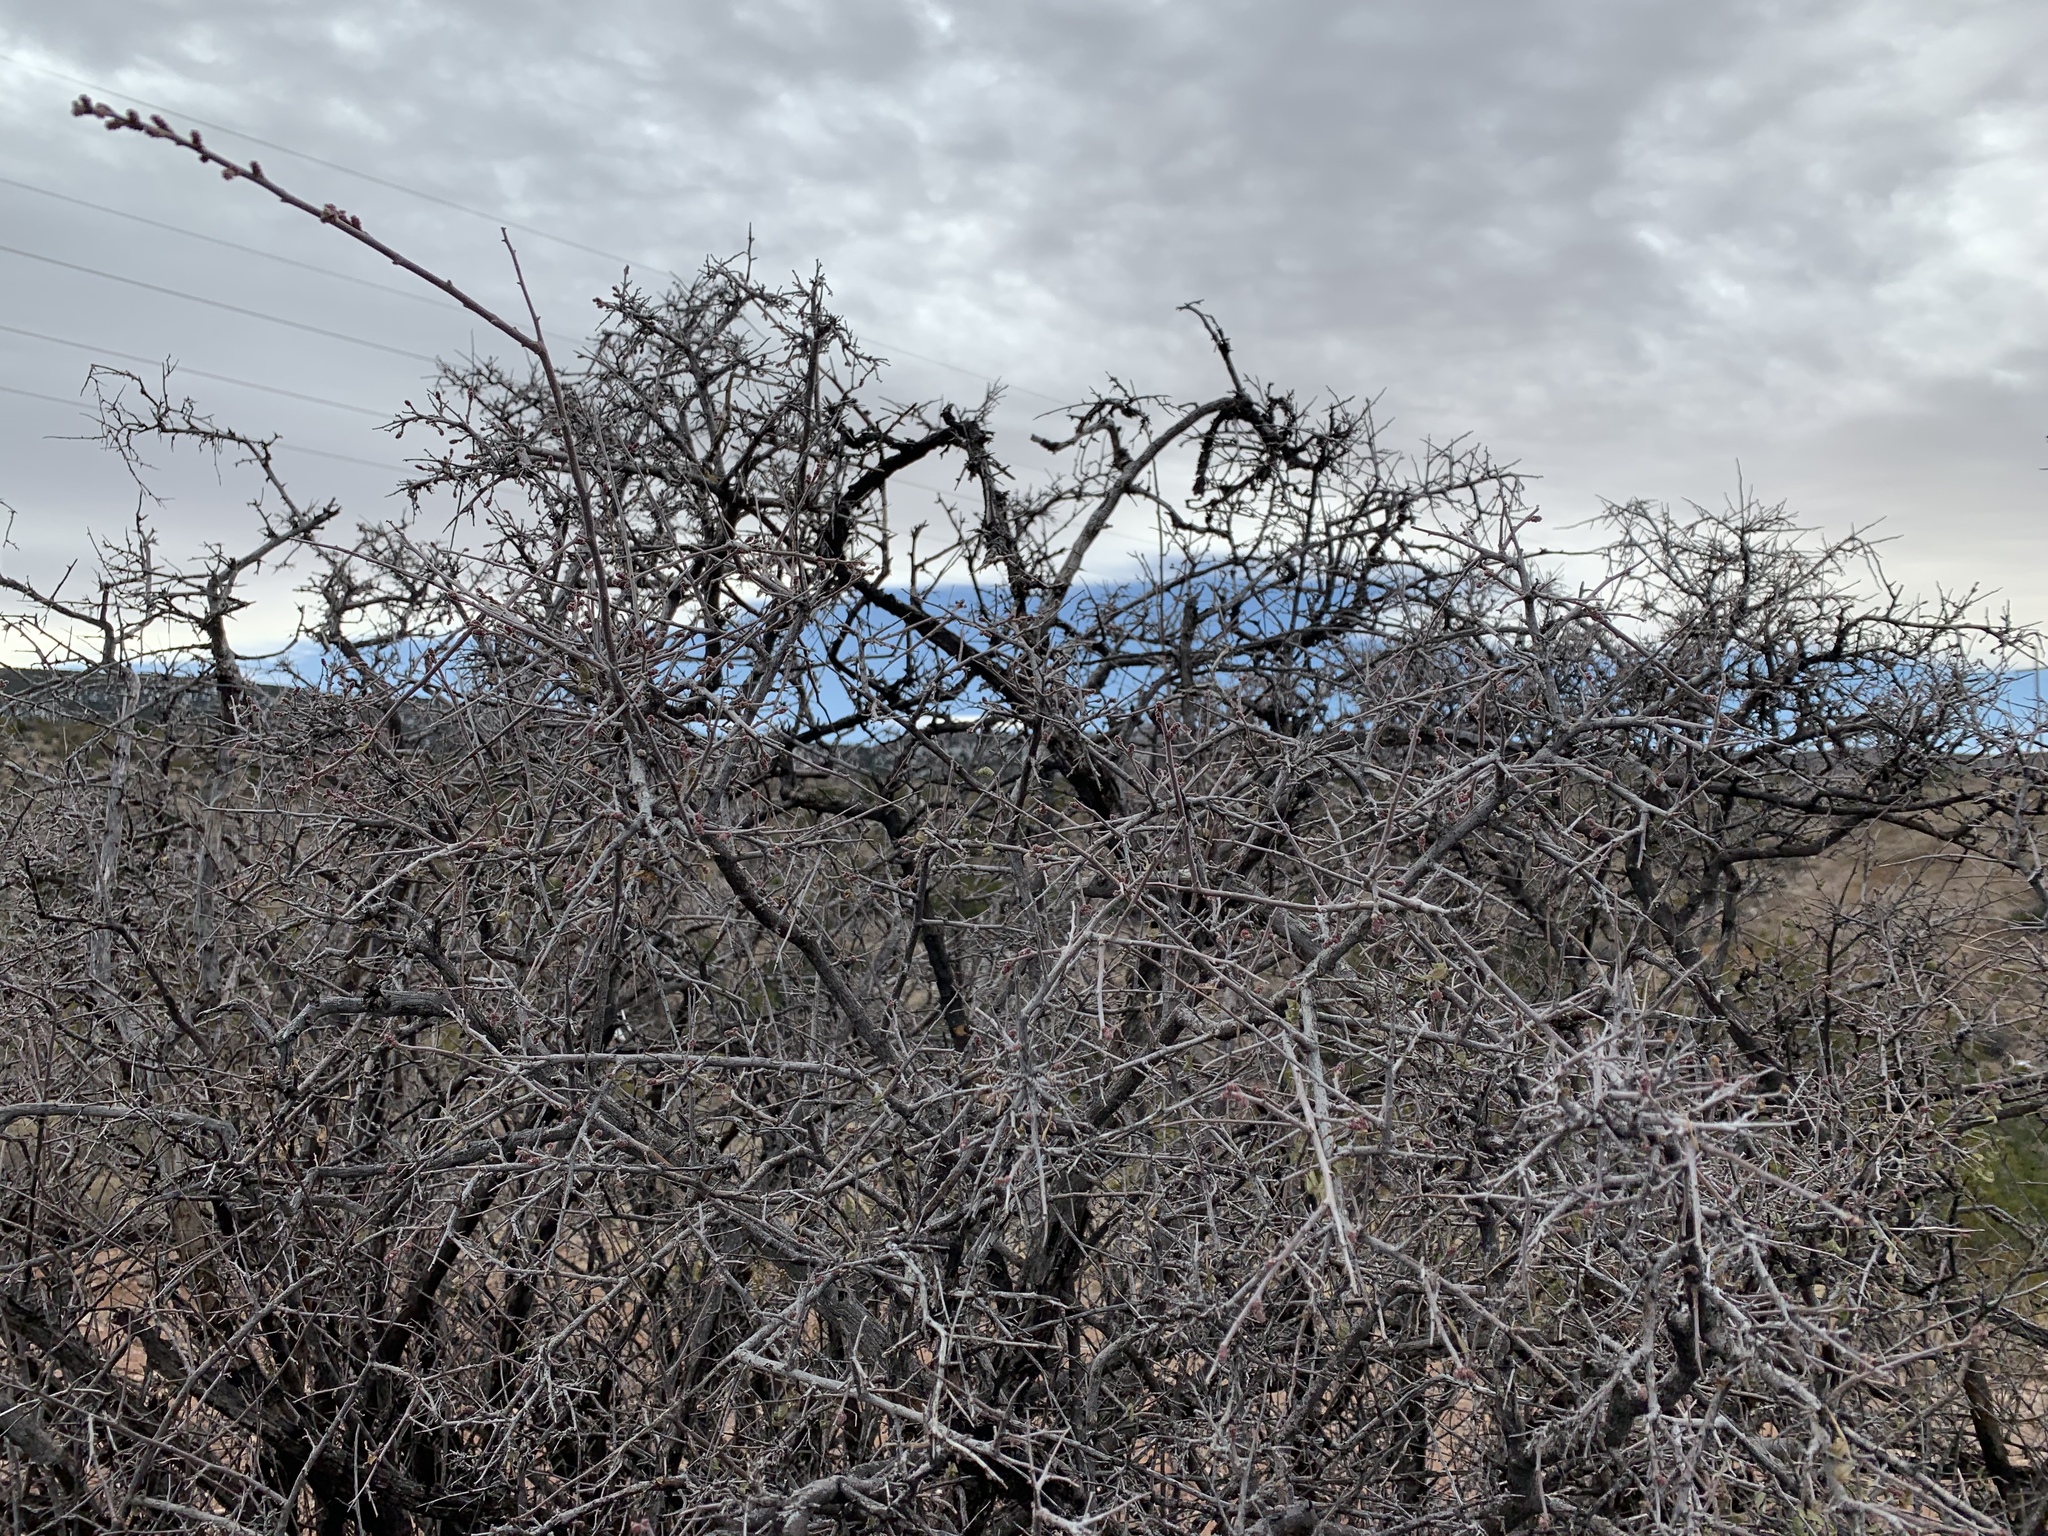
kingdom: Plantae
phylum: Tracheophyta
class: Magnoliopsida
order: Sapindales
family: Anacardiaceae
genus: Rhus
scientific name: Rhus microphylla
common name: Desert sumac
